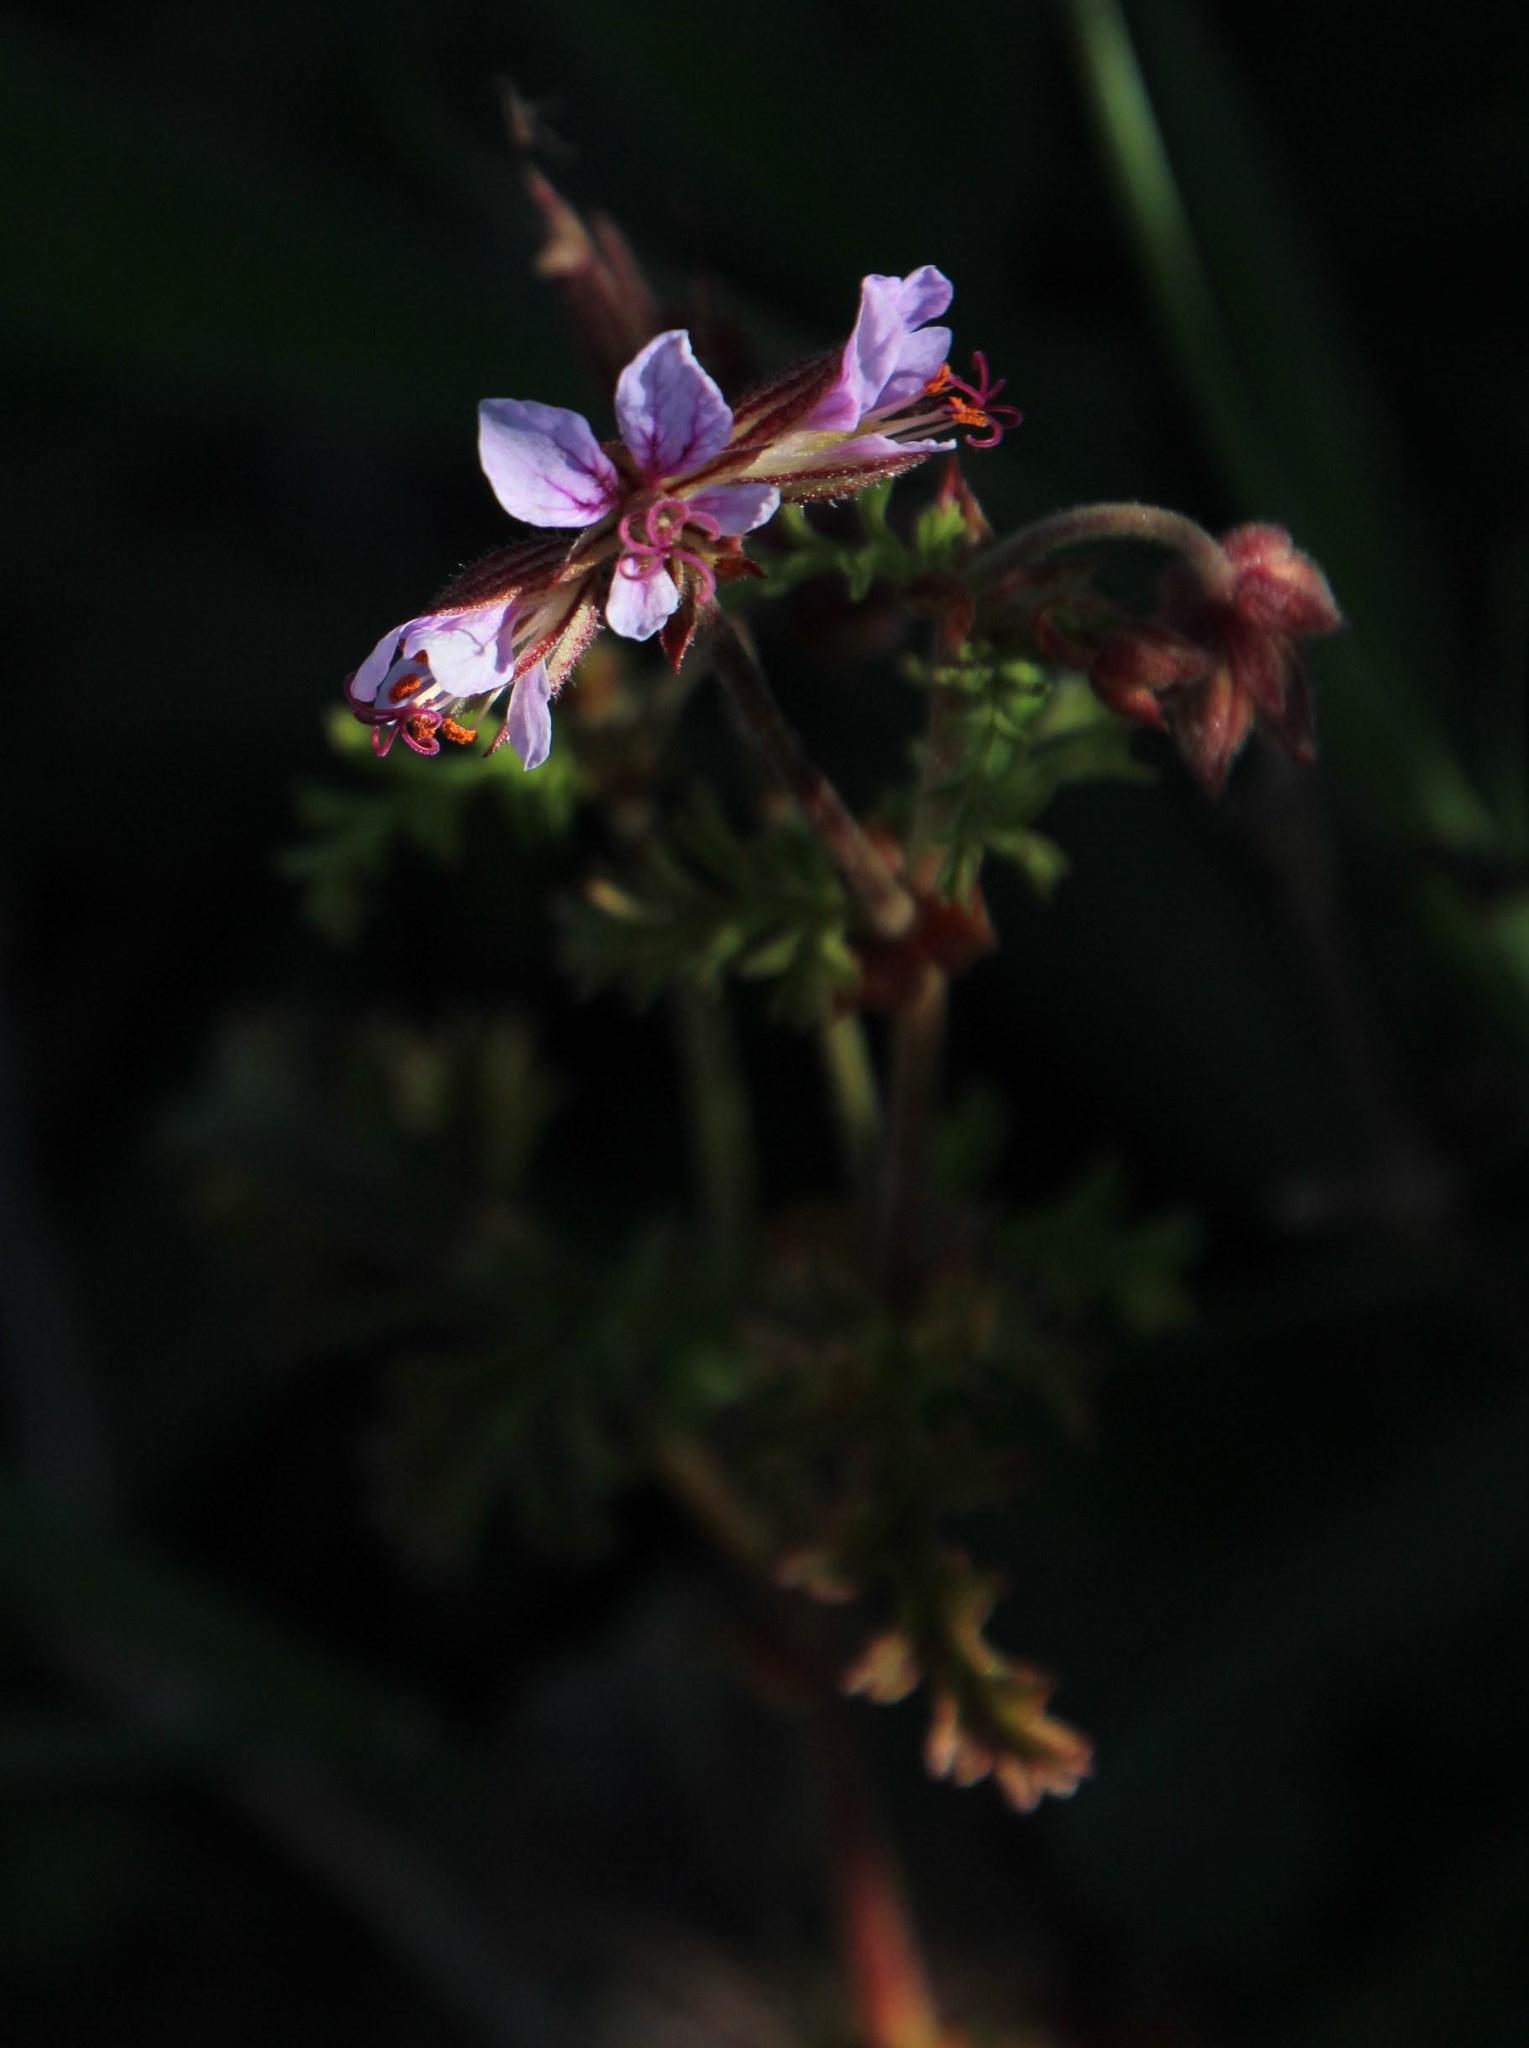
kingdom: Plantae
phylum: Tracheophyta
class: Magnoliopsida
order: Geraniales
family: Geraniaceae
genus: Pelargonium
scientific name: Pelargonium myrrhifolium
